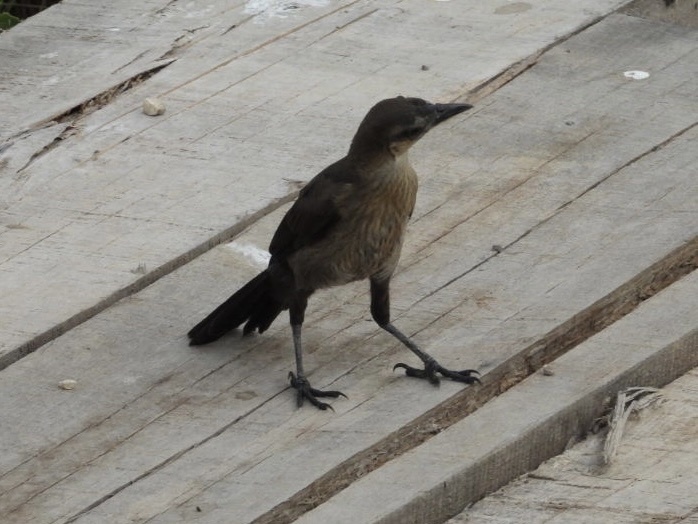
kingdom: Animalia
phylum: Chordata
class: Aves
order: Passeriformes
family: Icteridae
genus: Quiscalus
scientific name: Quiscalus mexicanus
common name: Great-tailed grackle
